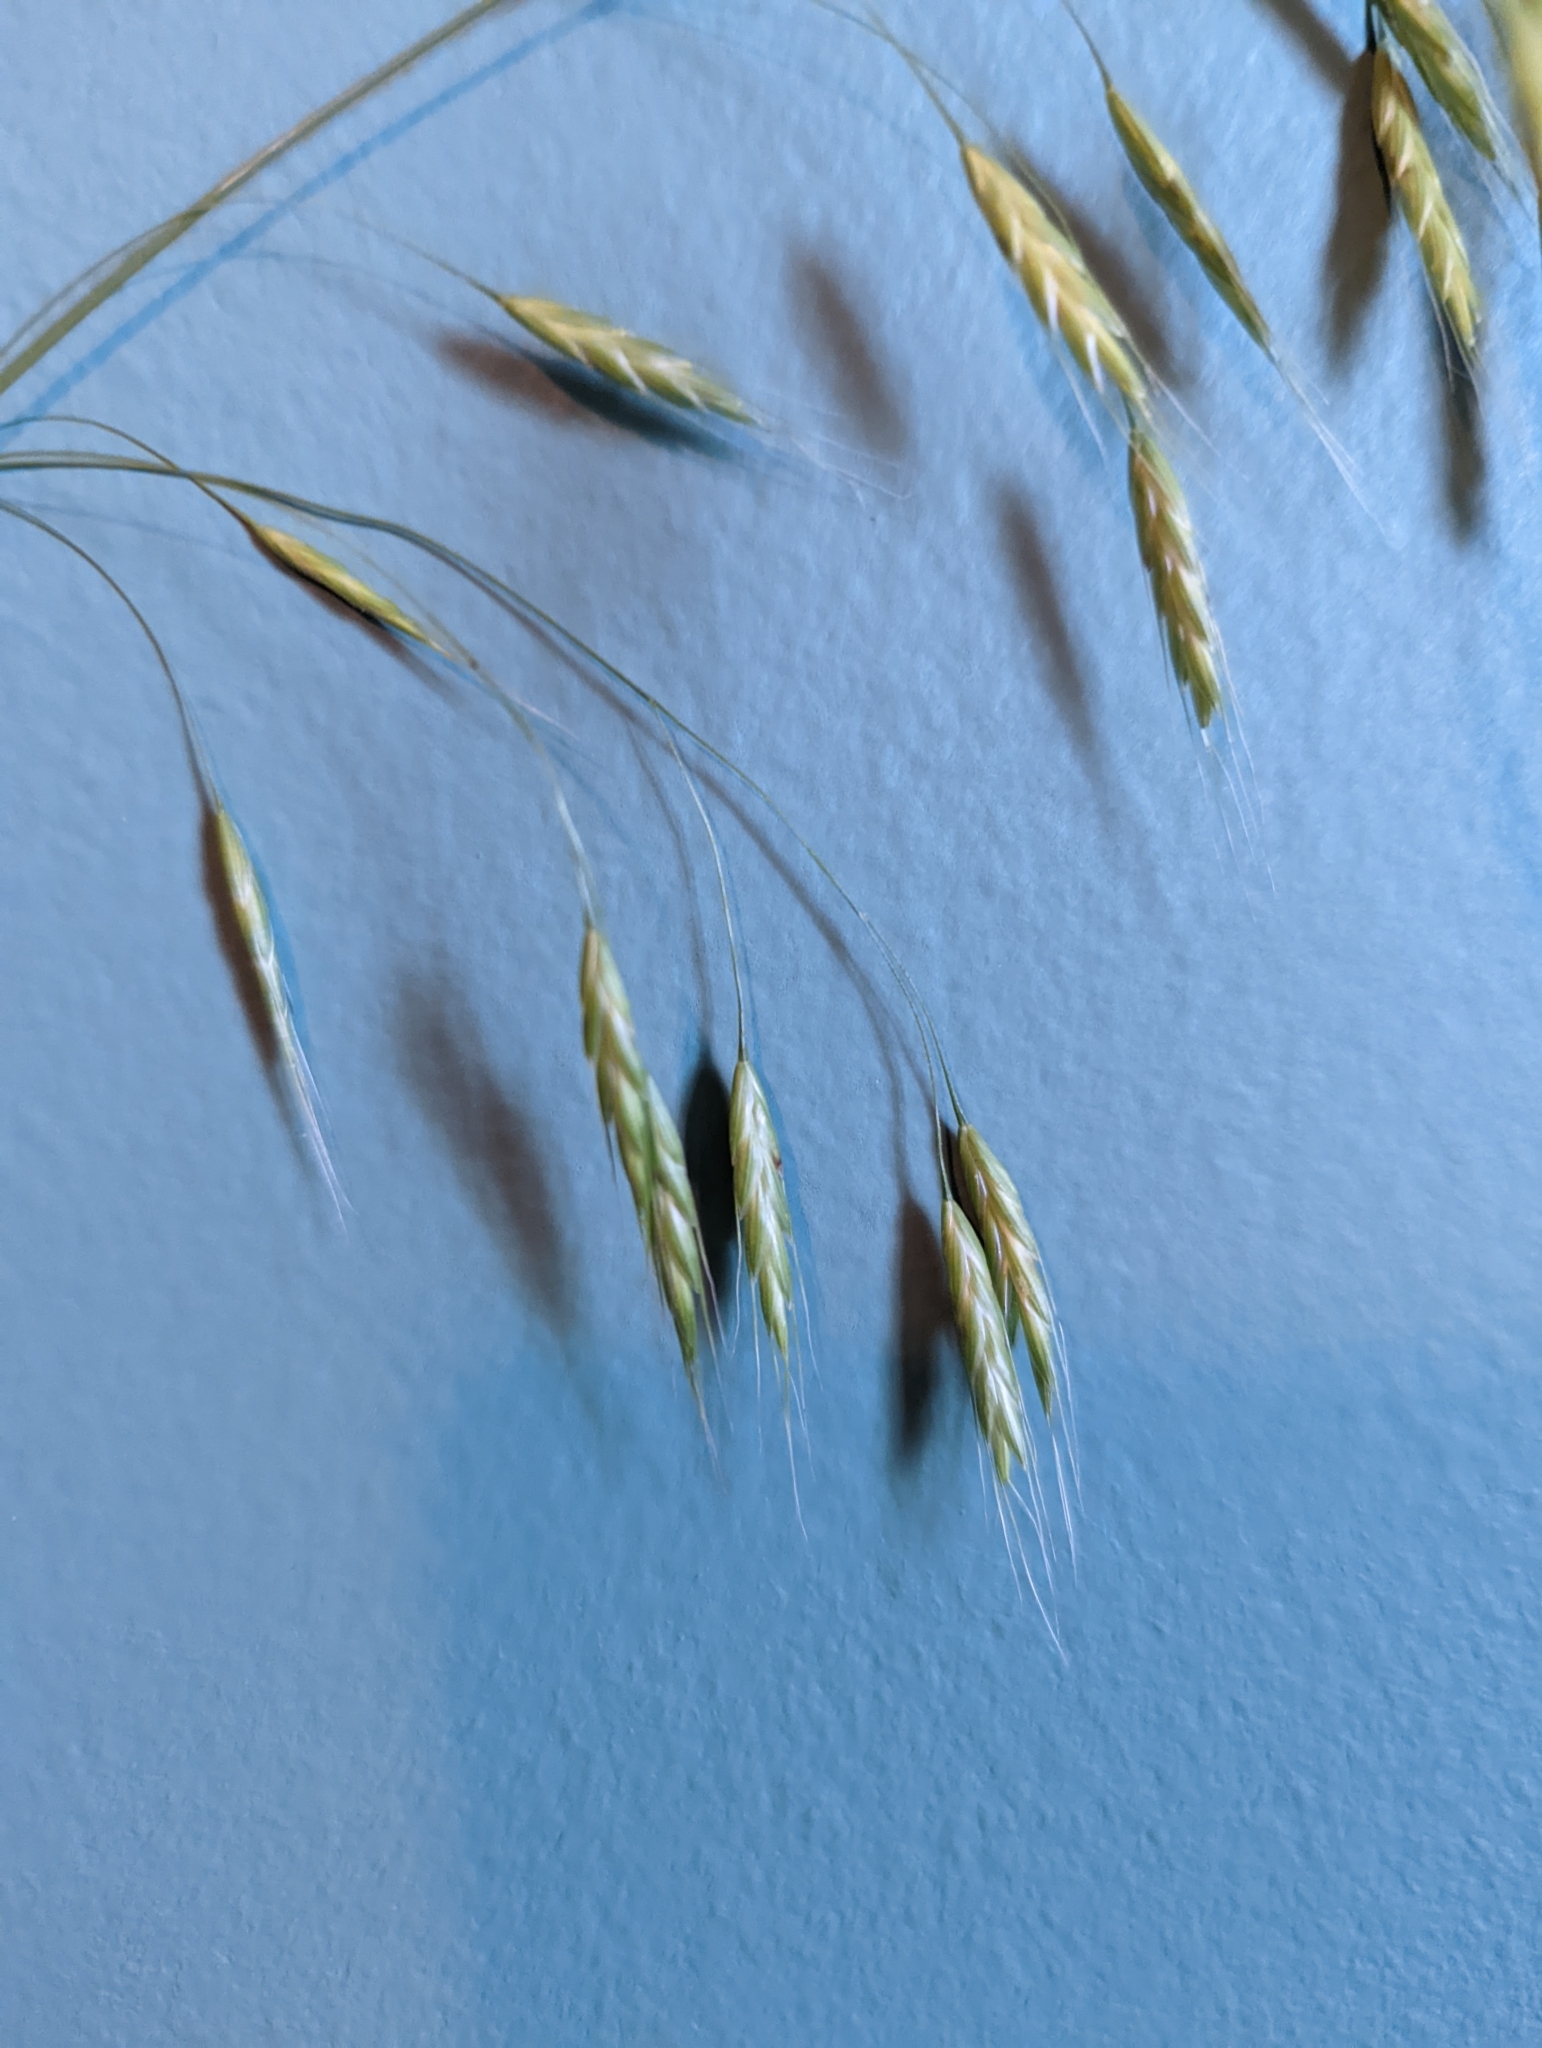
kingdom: Plantae
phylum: Tracheophyta
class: Liliopsida
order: Poales
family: Poaceae
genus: Bromus
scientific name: Bromus japonicus
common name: Japanese brome
